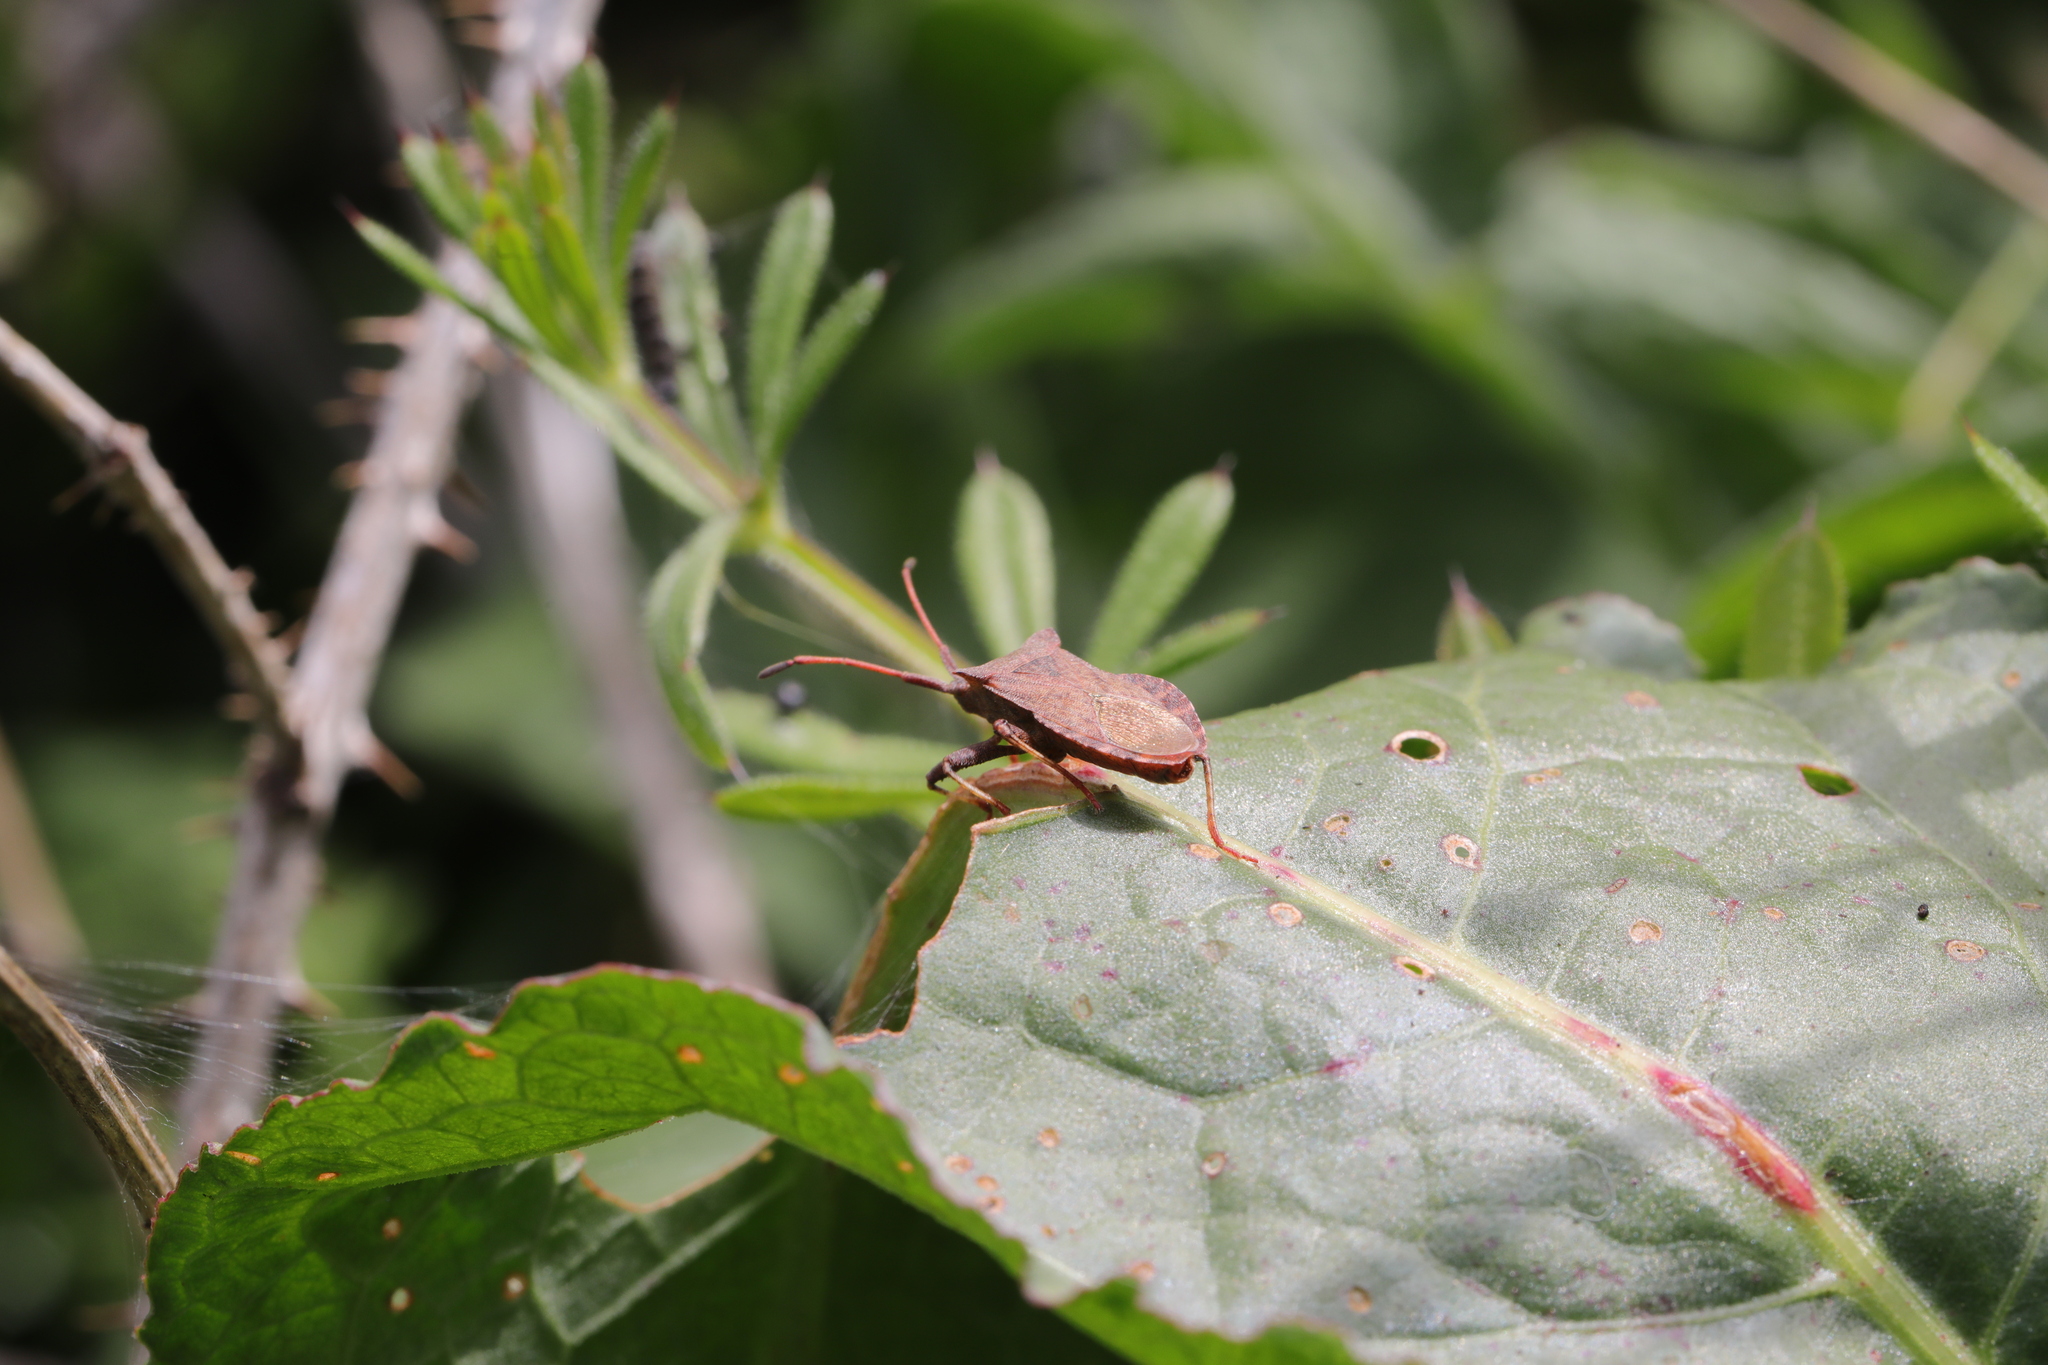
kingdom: Animalia
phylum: Arthropoda
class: Insecta
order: Hemiptera
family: Coreidae
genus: Coreus
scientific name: Coreus marginatus
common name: Dock bug
